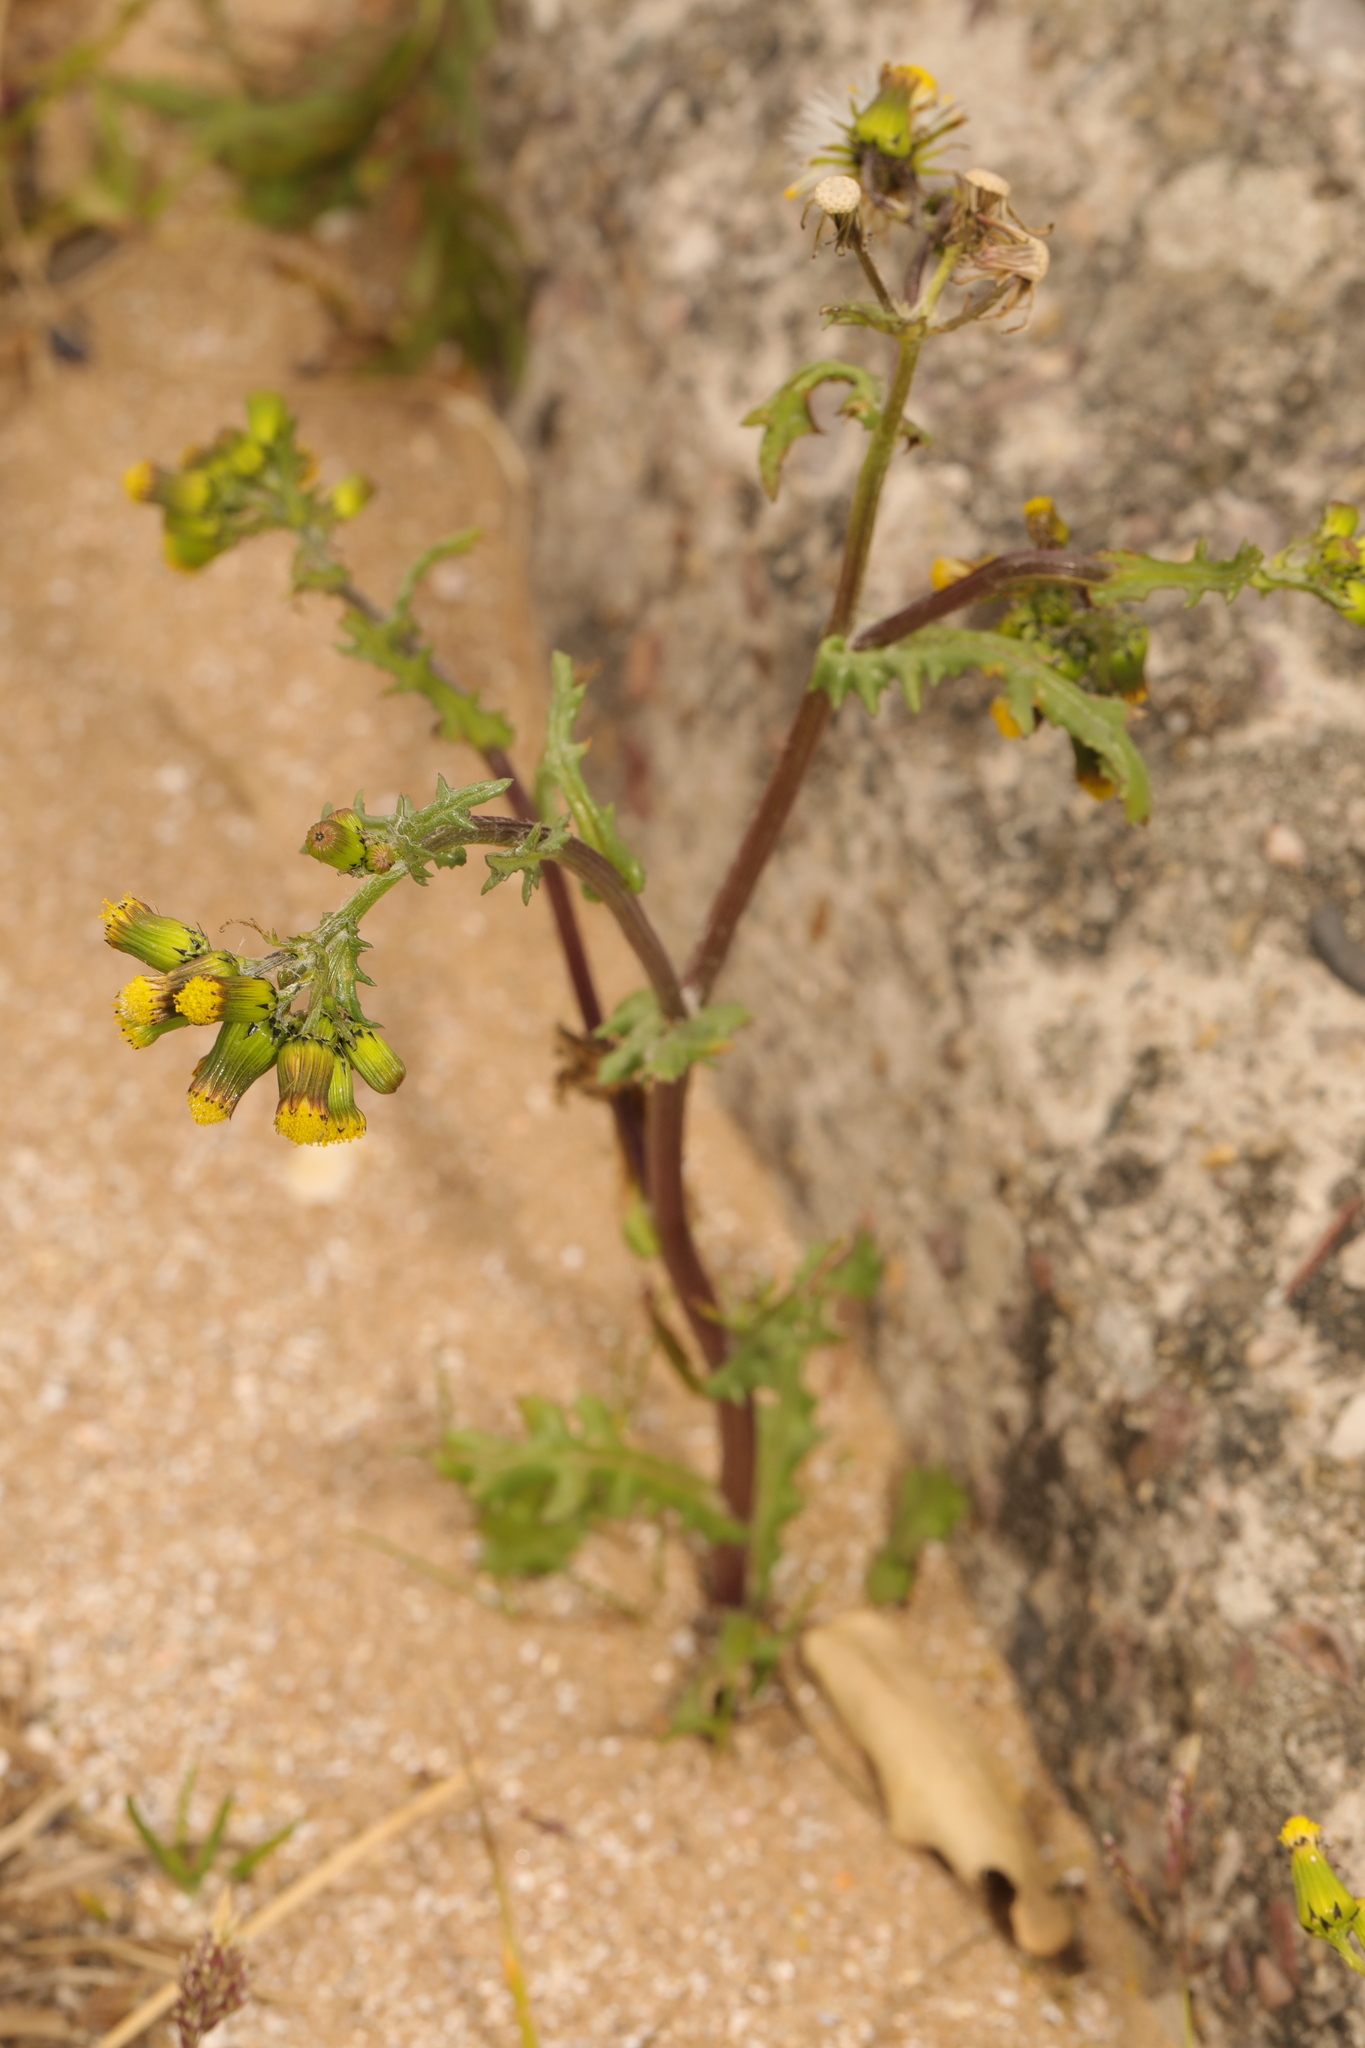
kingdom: Plantae
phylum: Tracheophyta
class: Magnoliopsida
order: Asterales
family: Asteraceae
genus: Senecio
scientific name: Senecio vulgaris
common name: Old-man-in-the-spring
